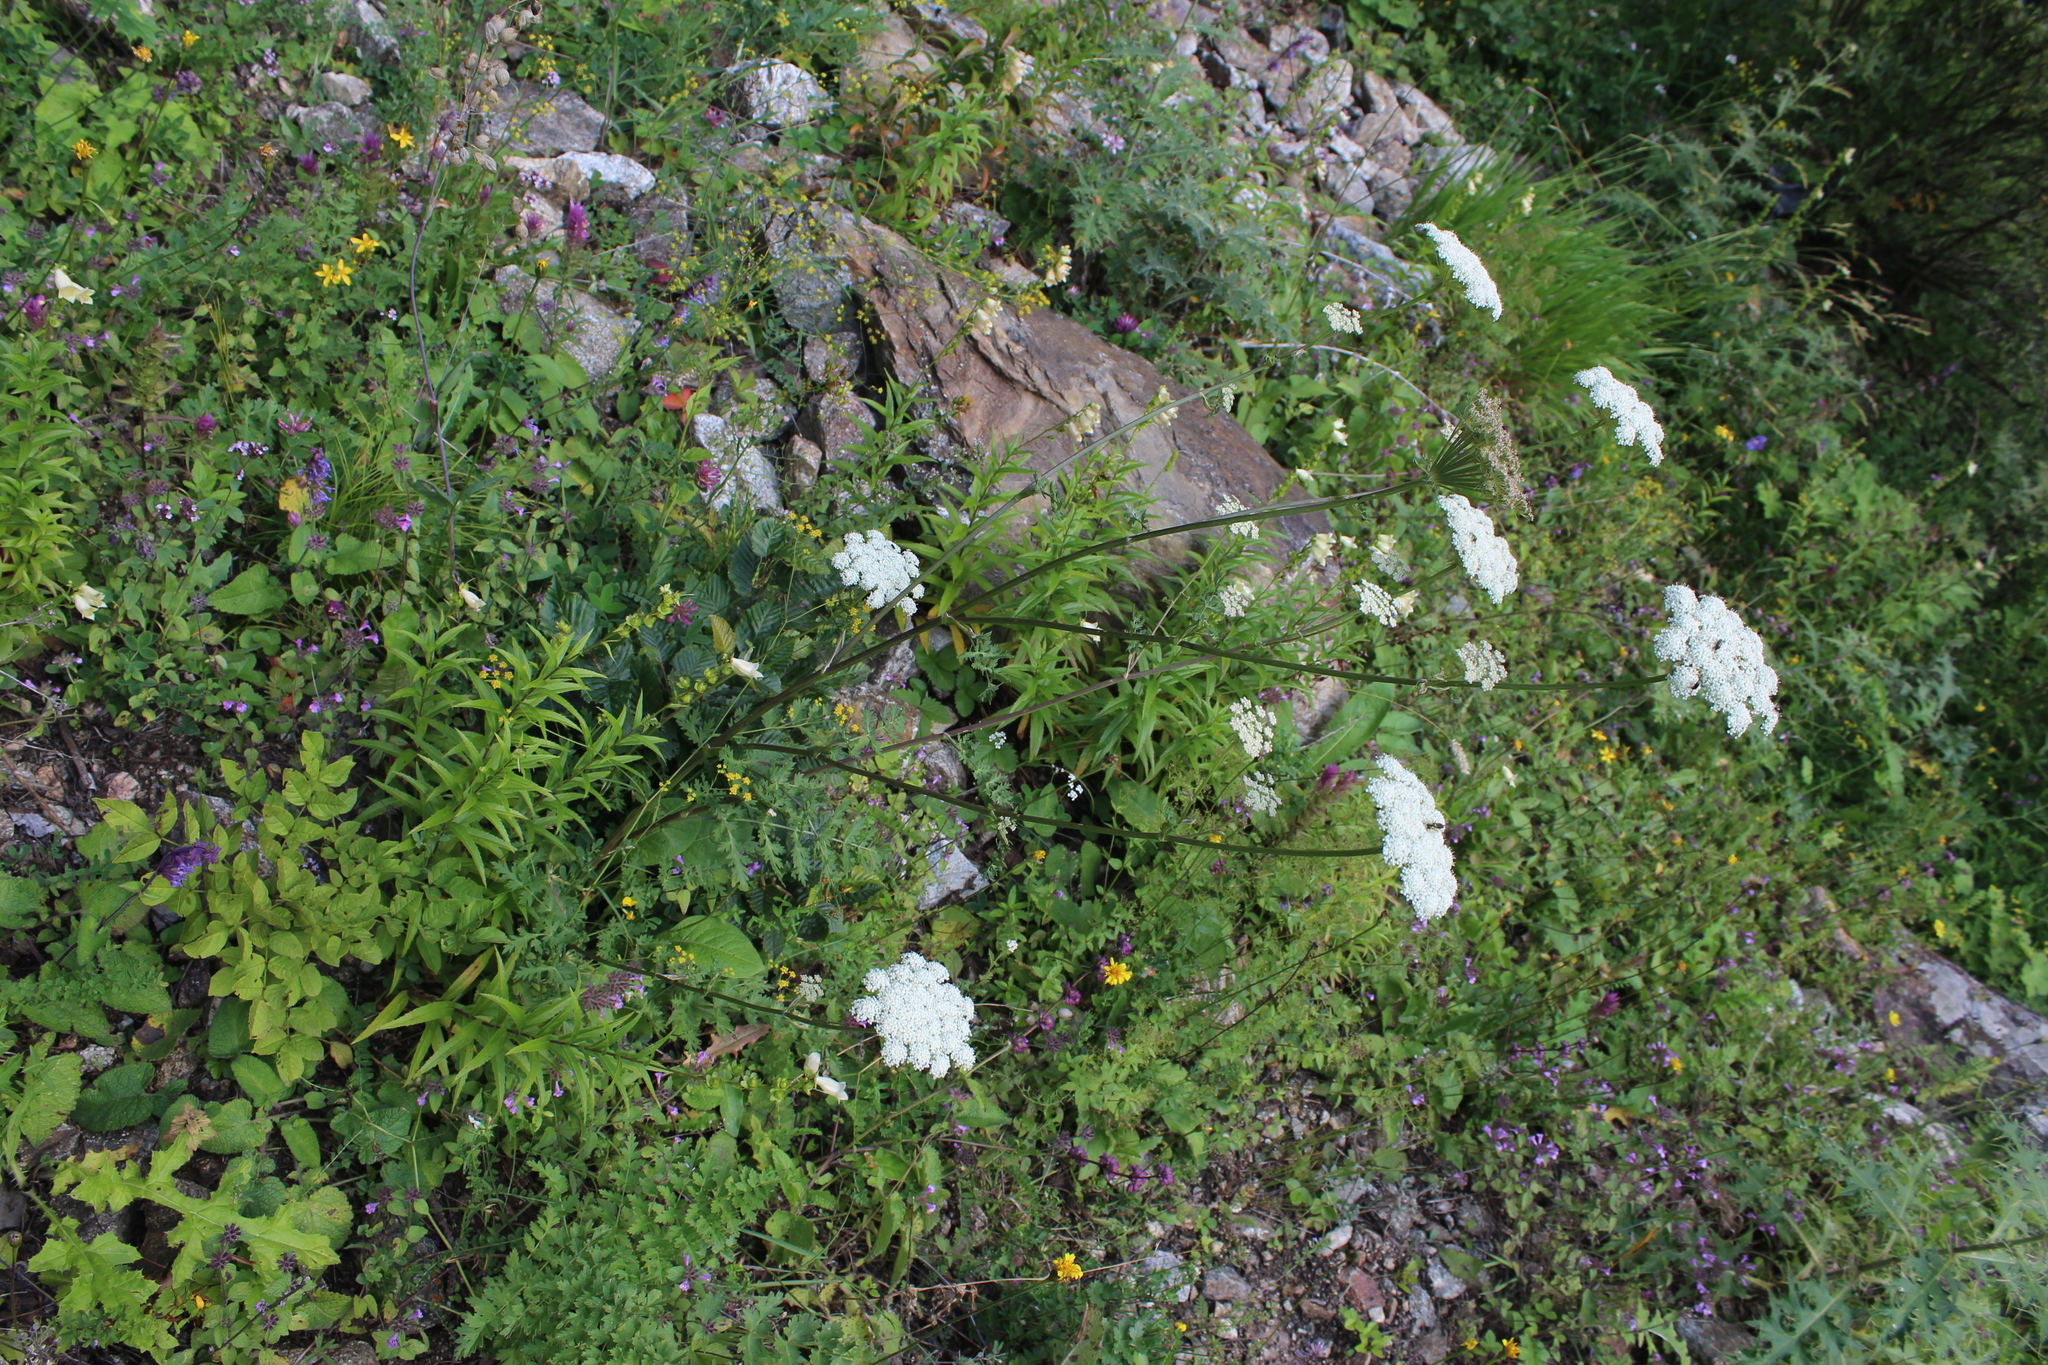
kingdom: Plantae
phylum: Tracheophyta
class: Magnoliopsida
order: Apiales
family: Apiaceae
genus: Seseli
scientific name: Seseli libanotis
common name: Mooncarrot
